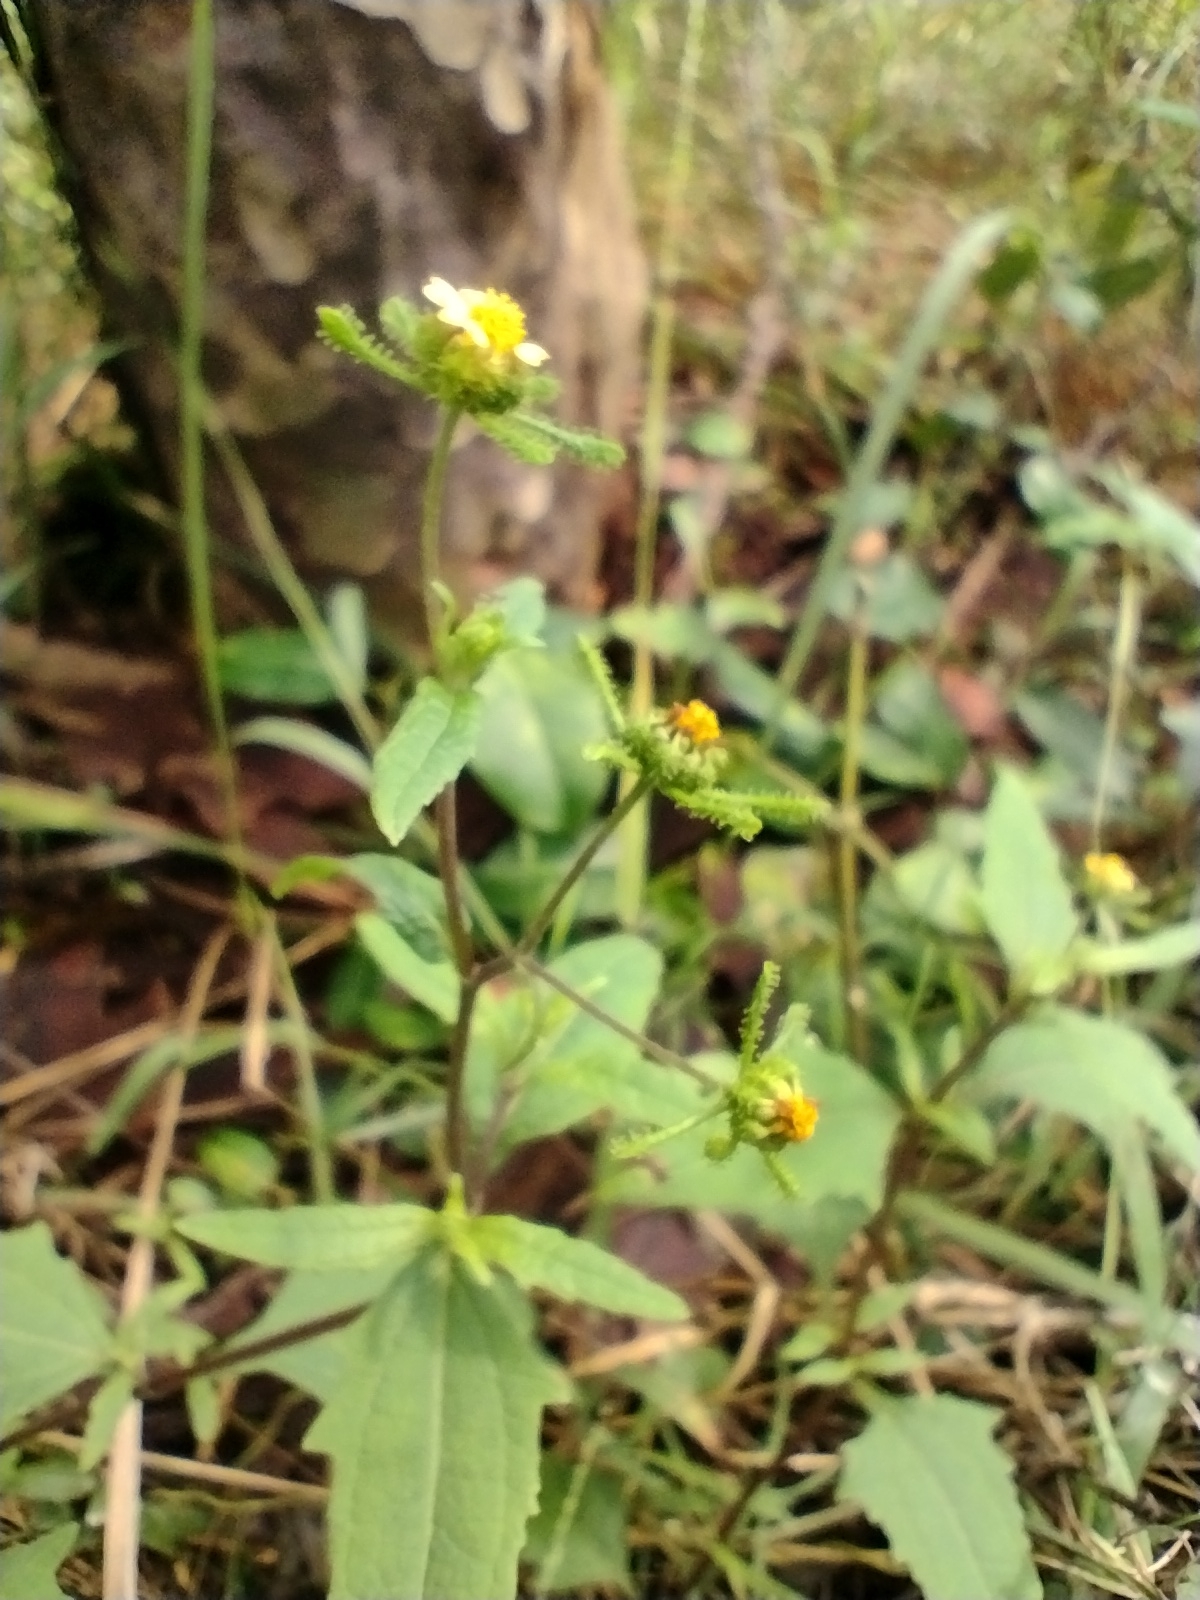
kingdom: Plantae
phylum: Tracheophyta
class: Magnoliopsida
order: Asterales
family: Asteraceae
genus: Sigesbeckia
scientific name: Sigesbeckia orientalis
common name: Eastern st paul's-wort
